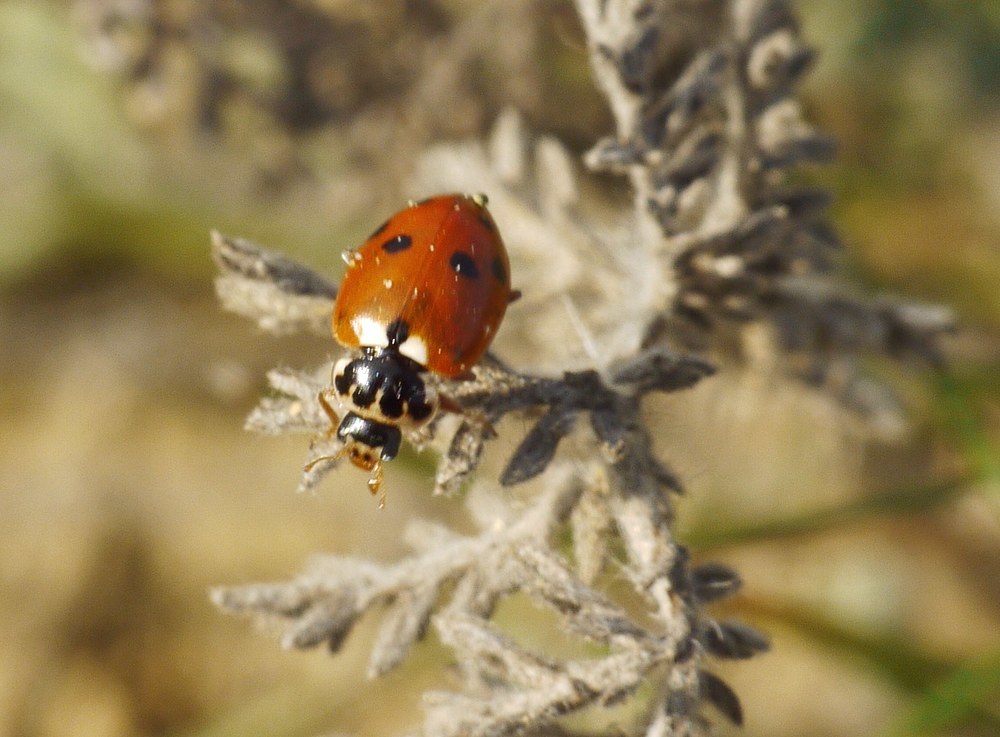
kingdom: Animalia
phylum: Arthropoda
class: Insecta
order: Coleoptera
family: Coccinellidae
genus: Hippodamia
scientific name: Hippodamia variegata
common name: Ladybird beetle
